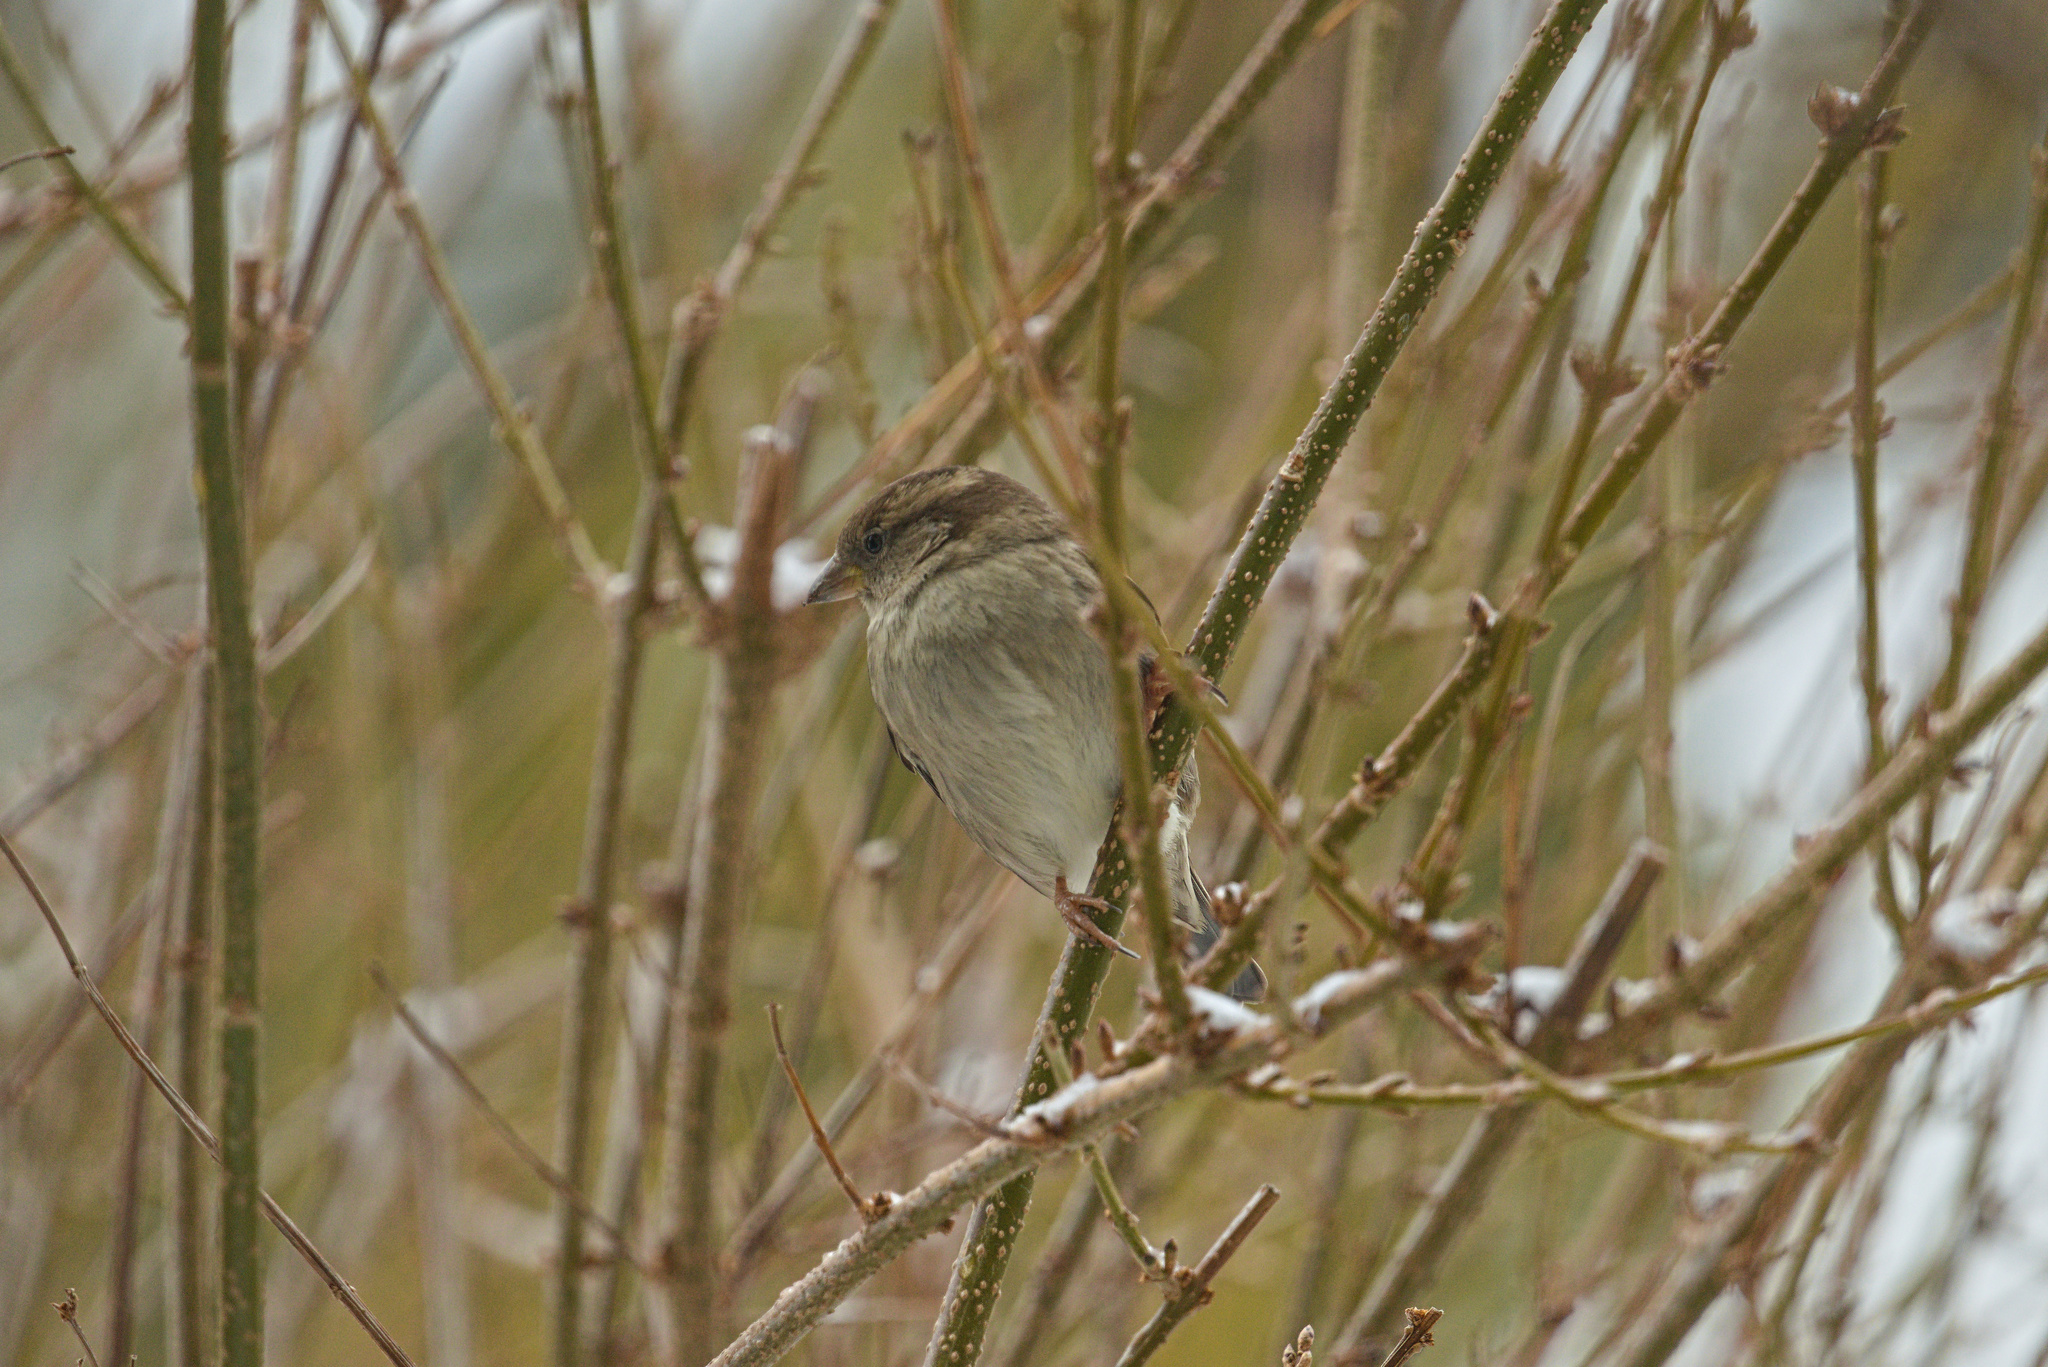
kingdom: Animalia
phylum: Chordata
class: Aves
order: Passeriformes
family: Passeridae
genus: Passer
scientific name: Passer domesticus
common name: House sparrow
